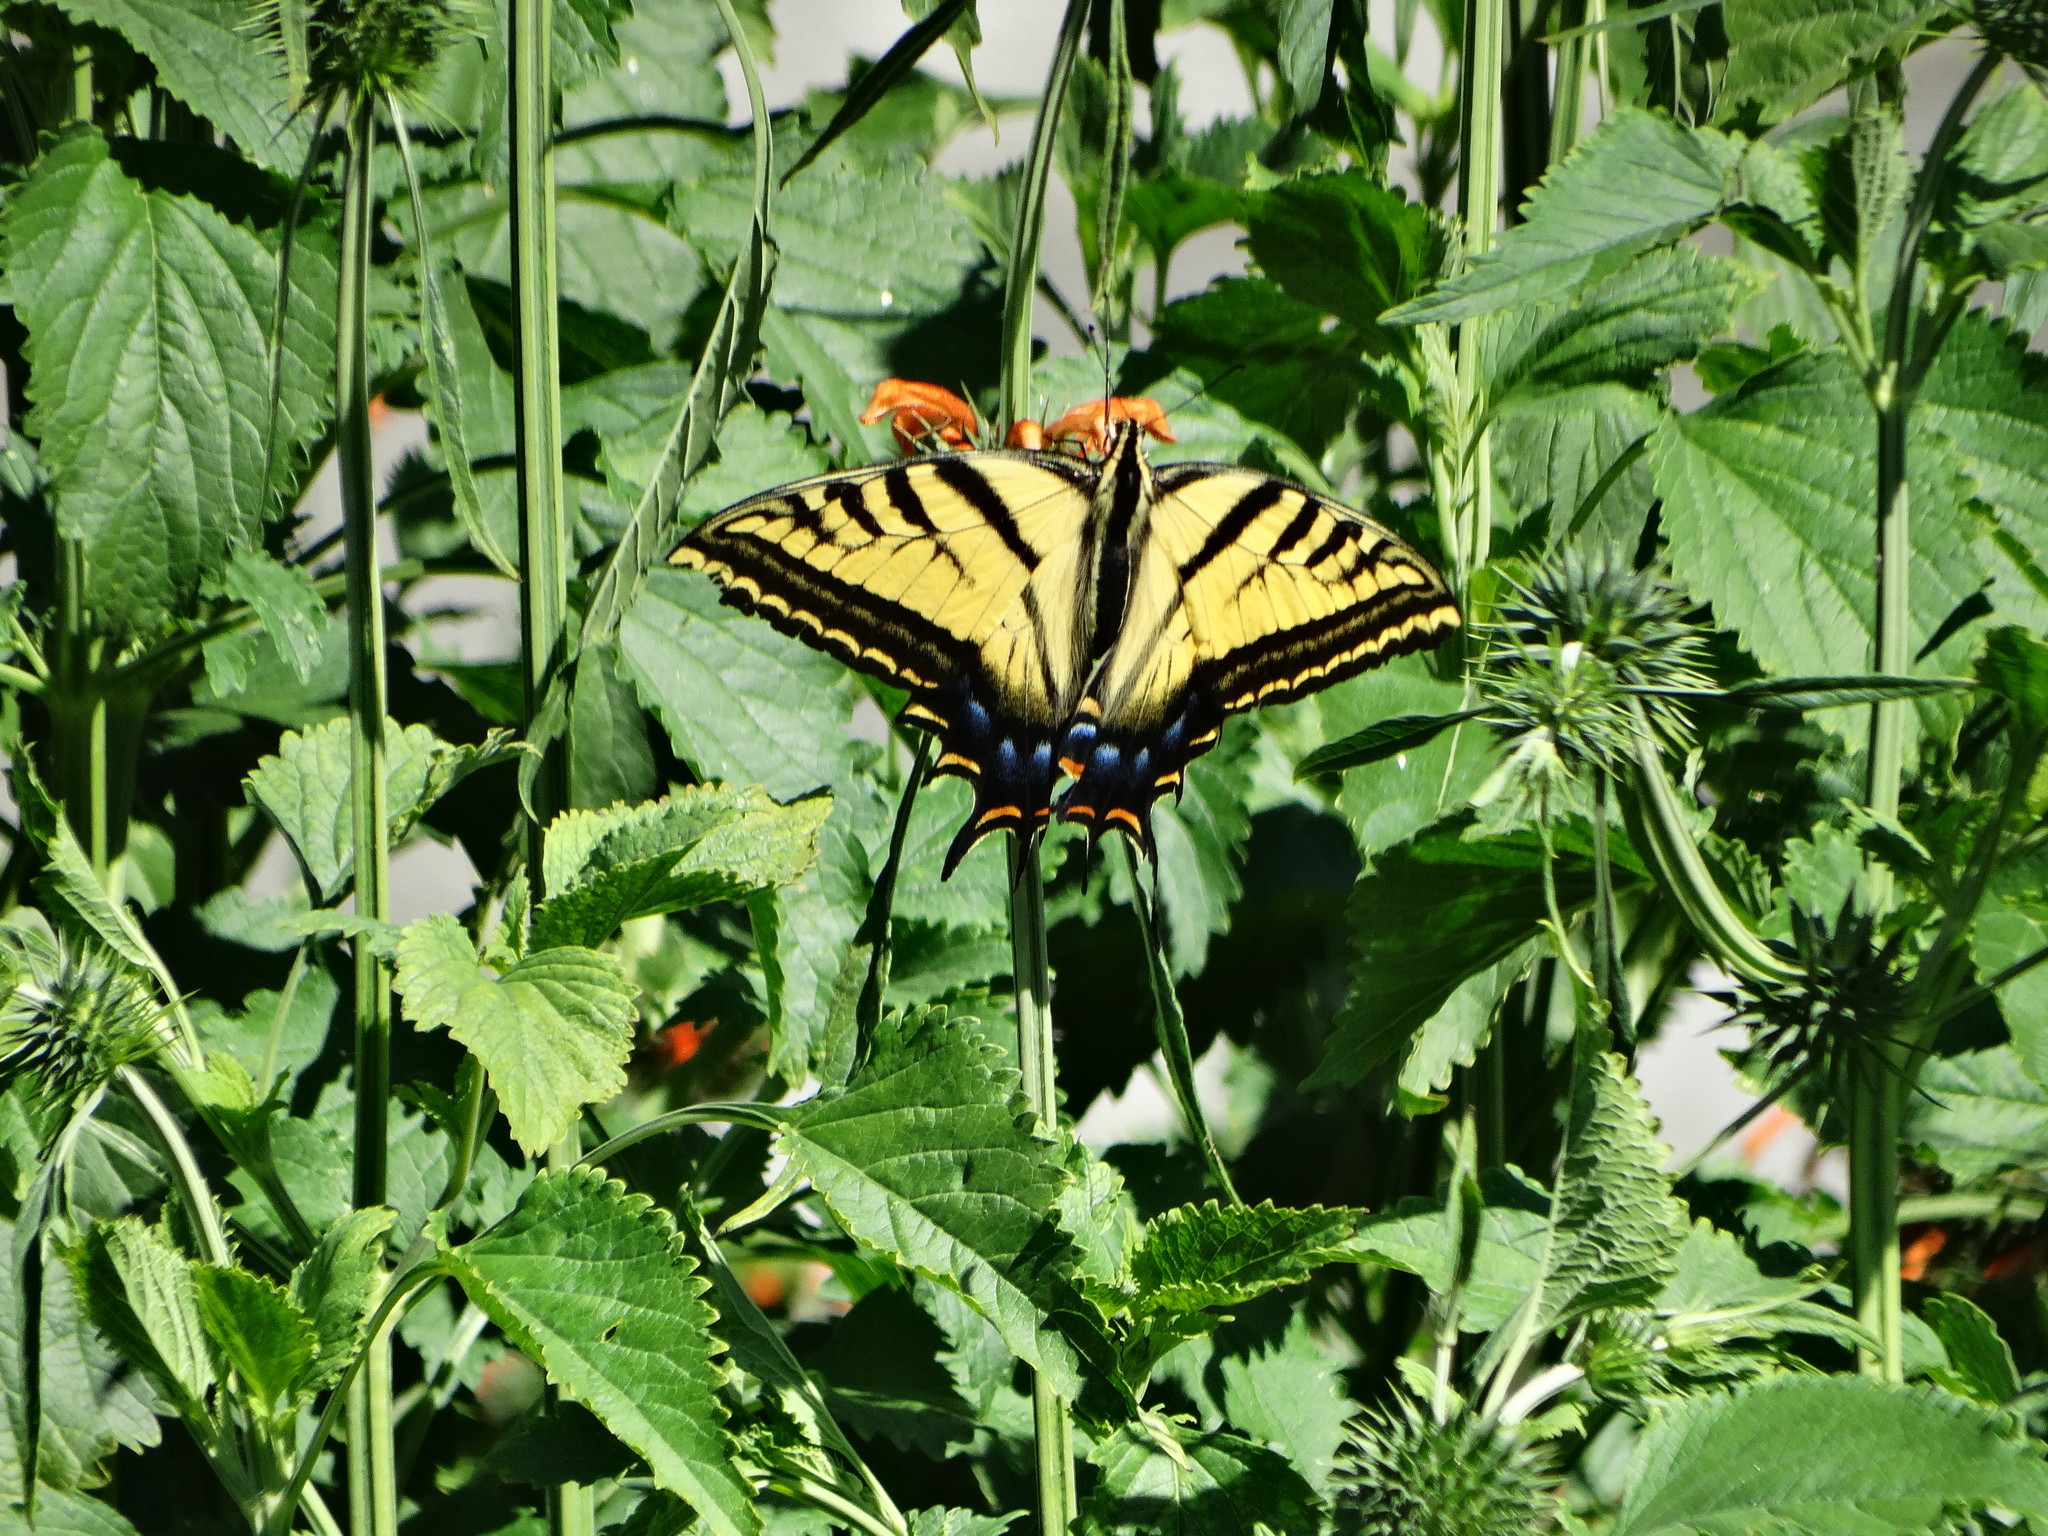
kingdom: Animalia
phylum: Arthropoda
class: Insecta
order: Lepidoptera
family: Papilionidae
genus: Papilio
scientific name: Papilio multicaudata
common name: Two-tailed tiger swallowtail
